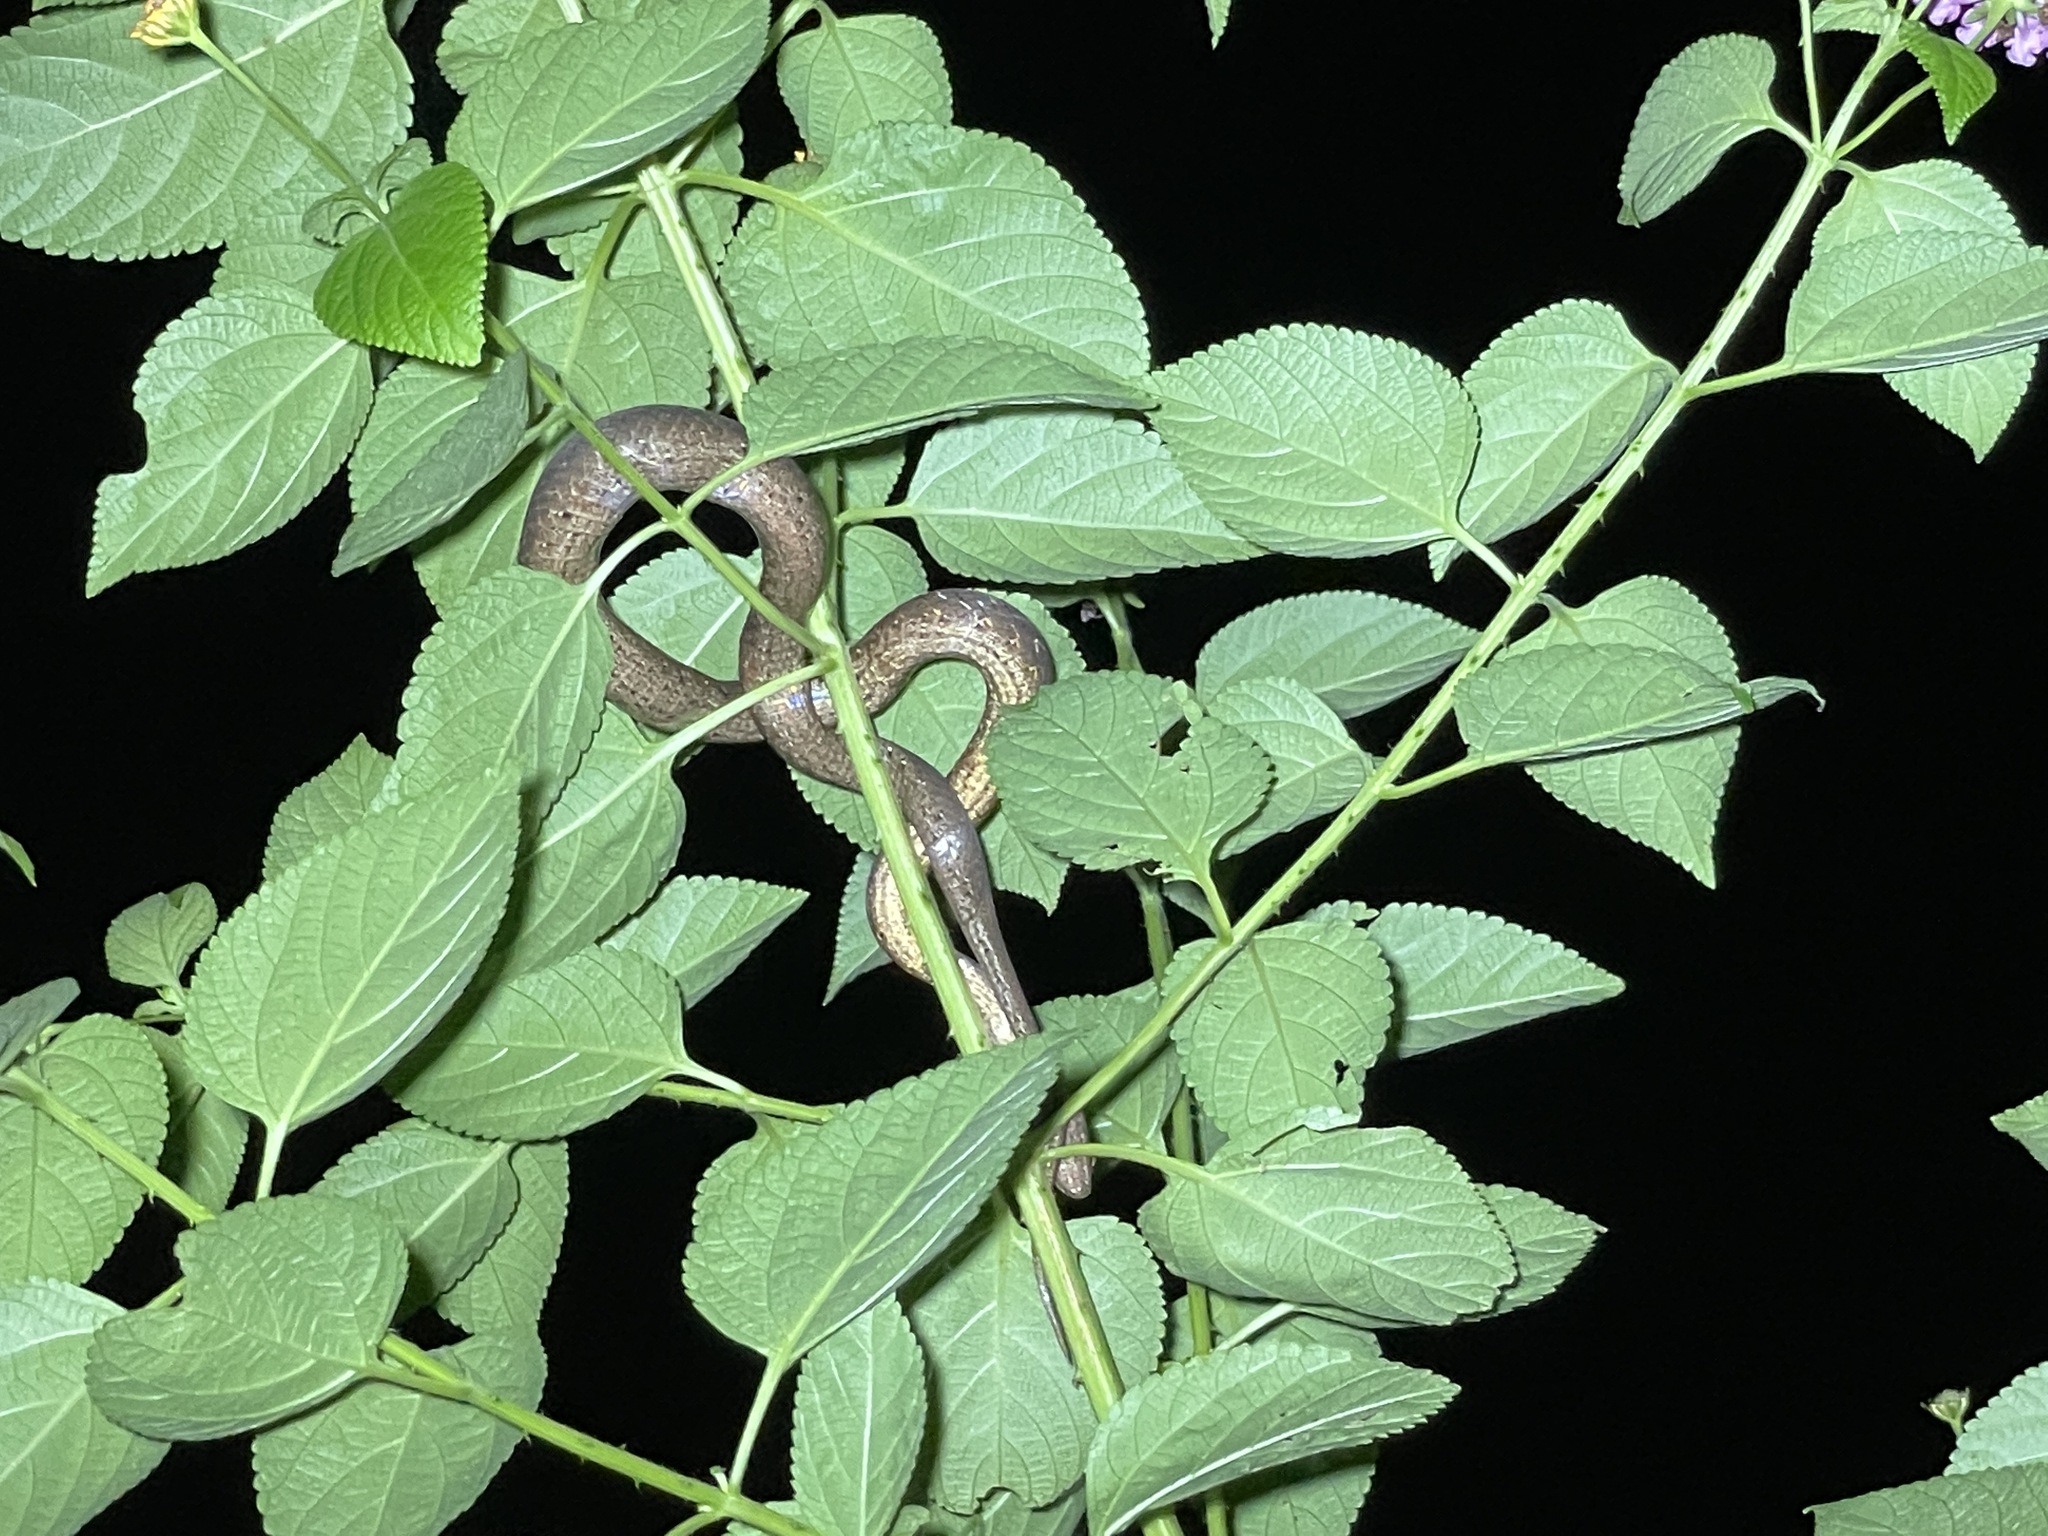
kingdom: Animalia
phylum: Chordata
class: Squamata
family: Pseudaspididae
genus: Psammodynastes
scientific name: Psammodynastes pulverulentus
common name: Common mock viper
